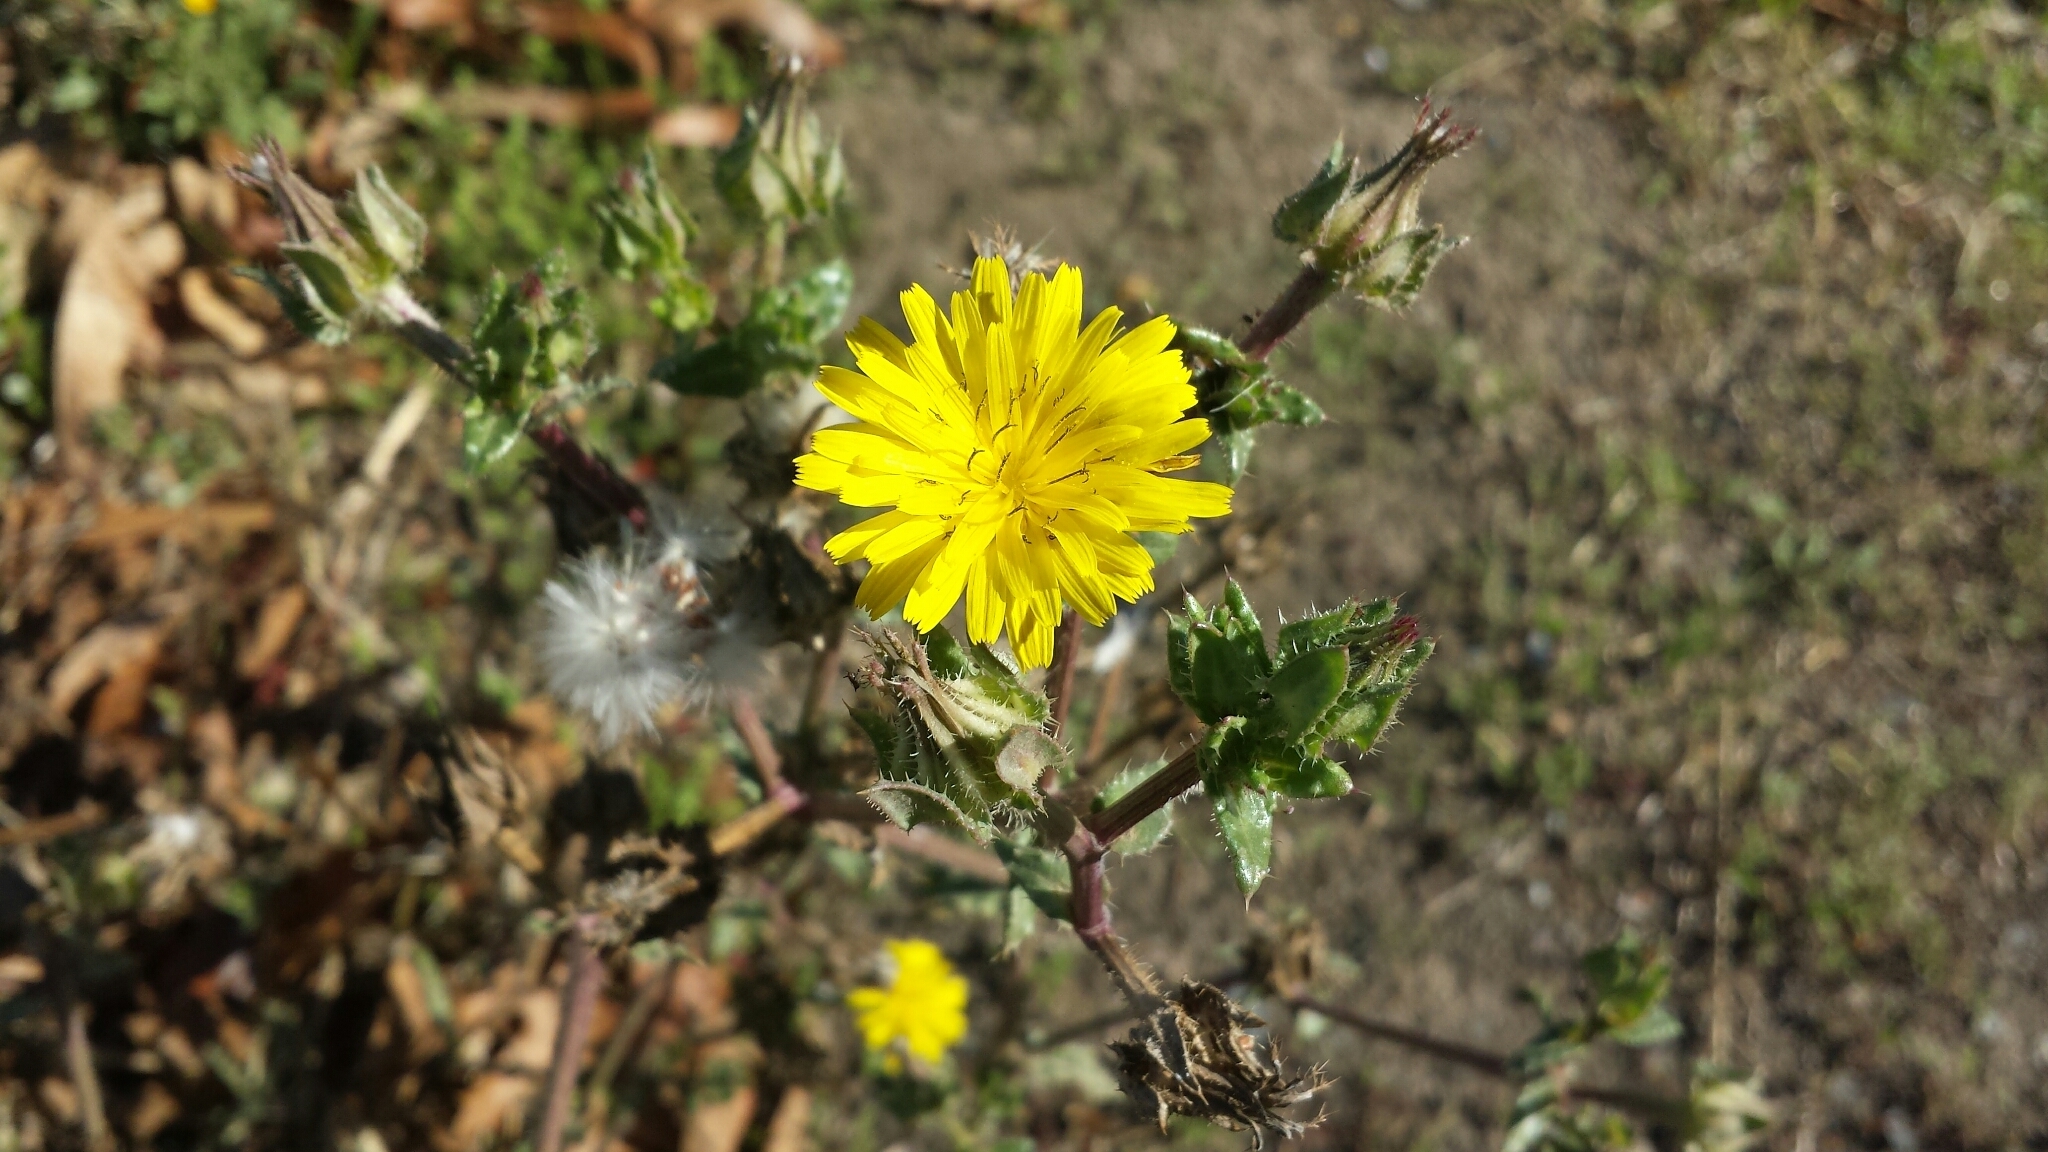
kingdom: Plantae
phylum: Tracheophyta
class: Magnoliopsida
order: Asterales
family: Asteraceae
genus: Helminthotheca
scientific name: Helminthotheca echioides
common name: Ox-tongue
